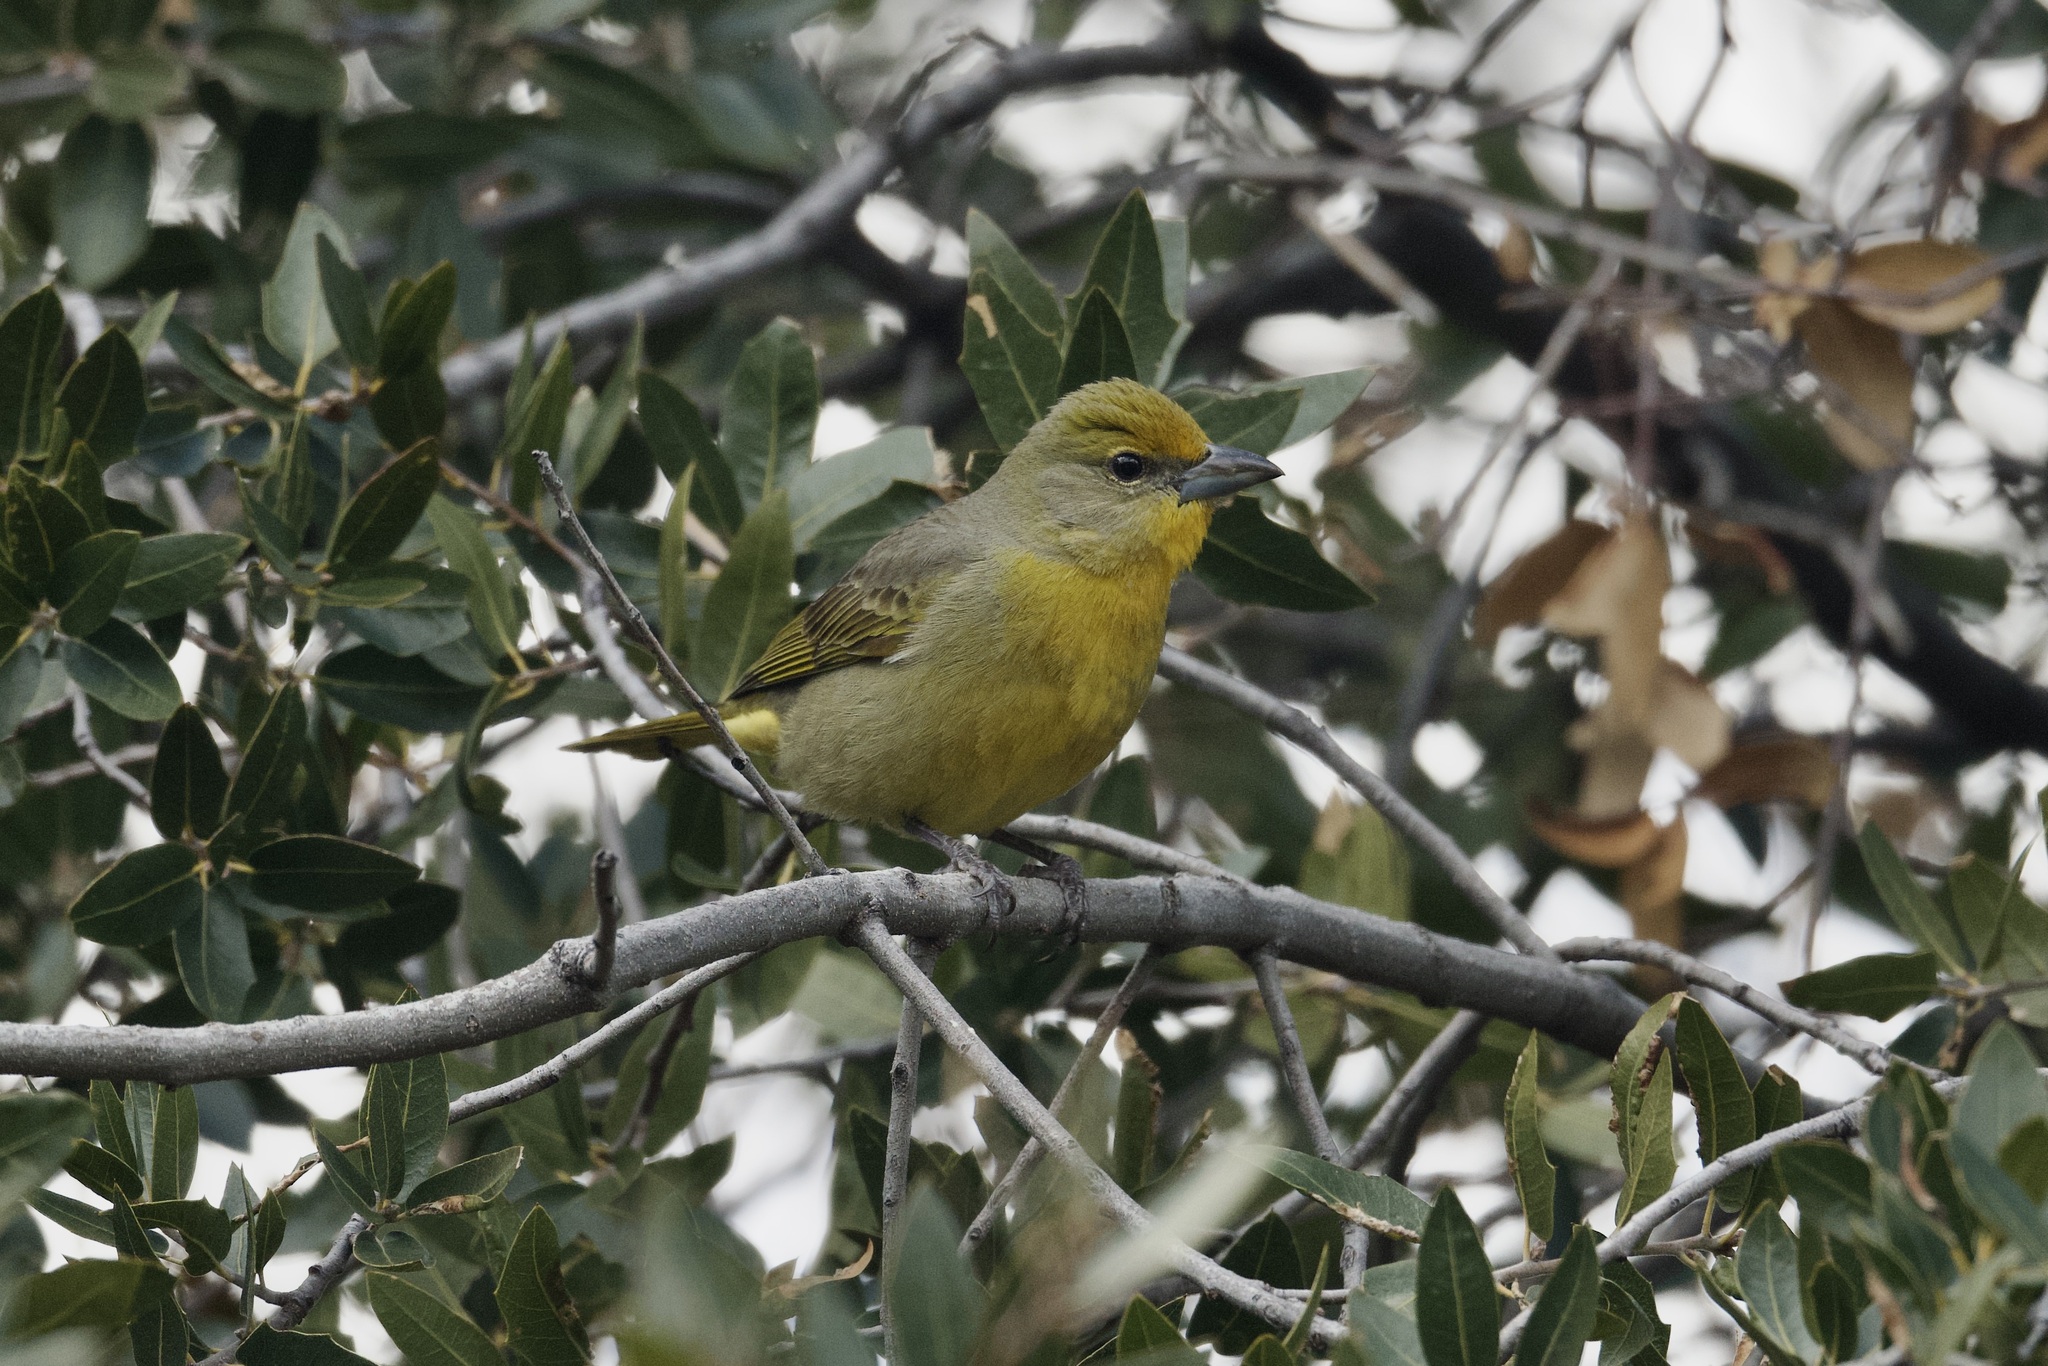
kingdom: Animalia
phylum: Chordata
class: Aves
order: Passeriformes
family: Cardinalidae
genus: Piranga
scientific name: Piranga flava
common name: Red tanager
